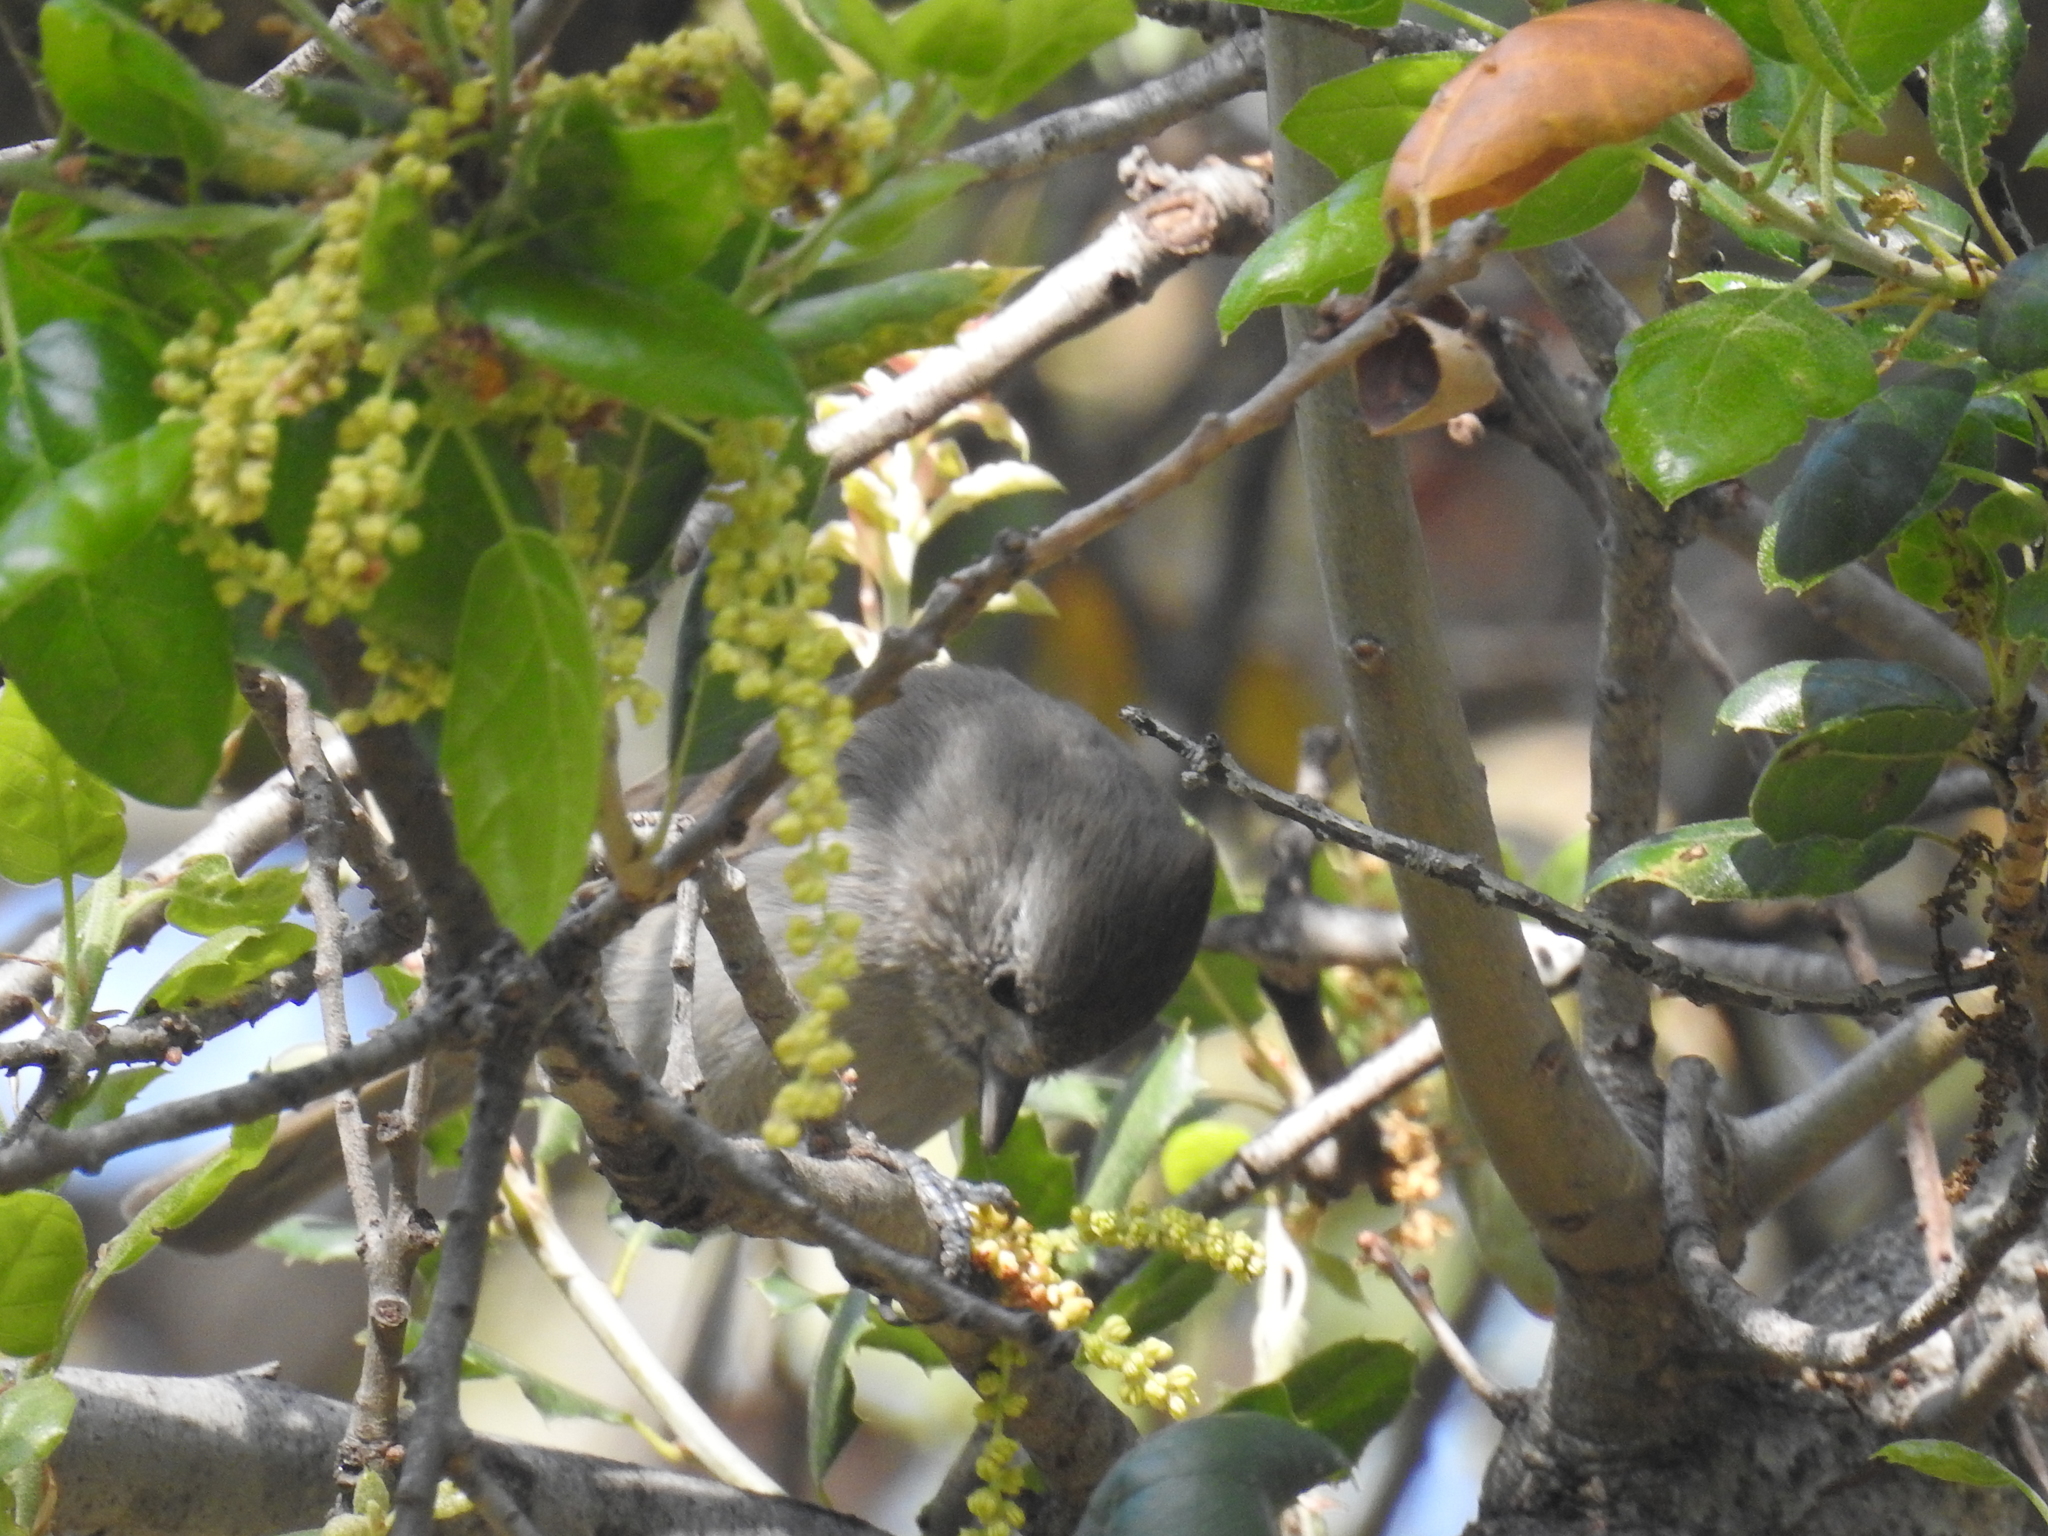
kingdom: Animalia
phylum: Chordata
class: Aves
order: Passeriformes
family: Paridae
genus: Baeolophus
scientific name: Baeolophus inornatus
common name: Oak titmouse
